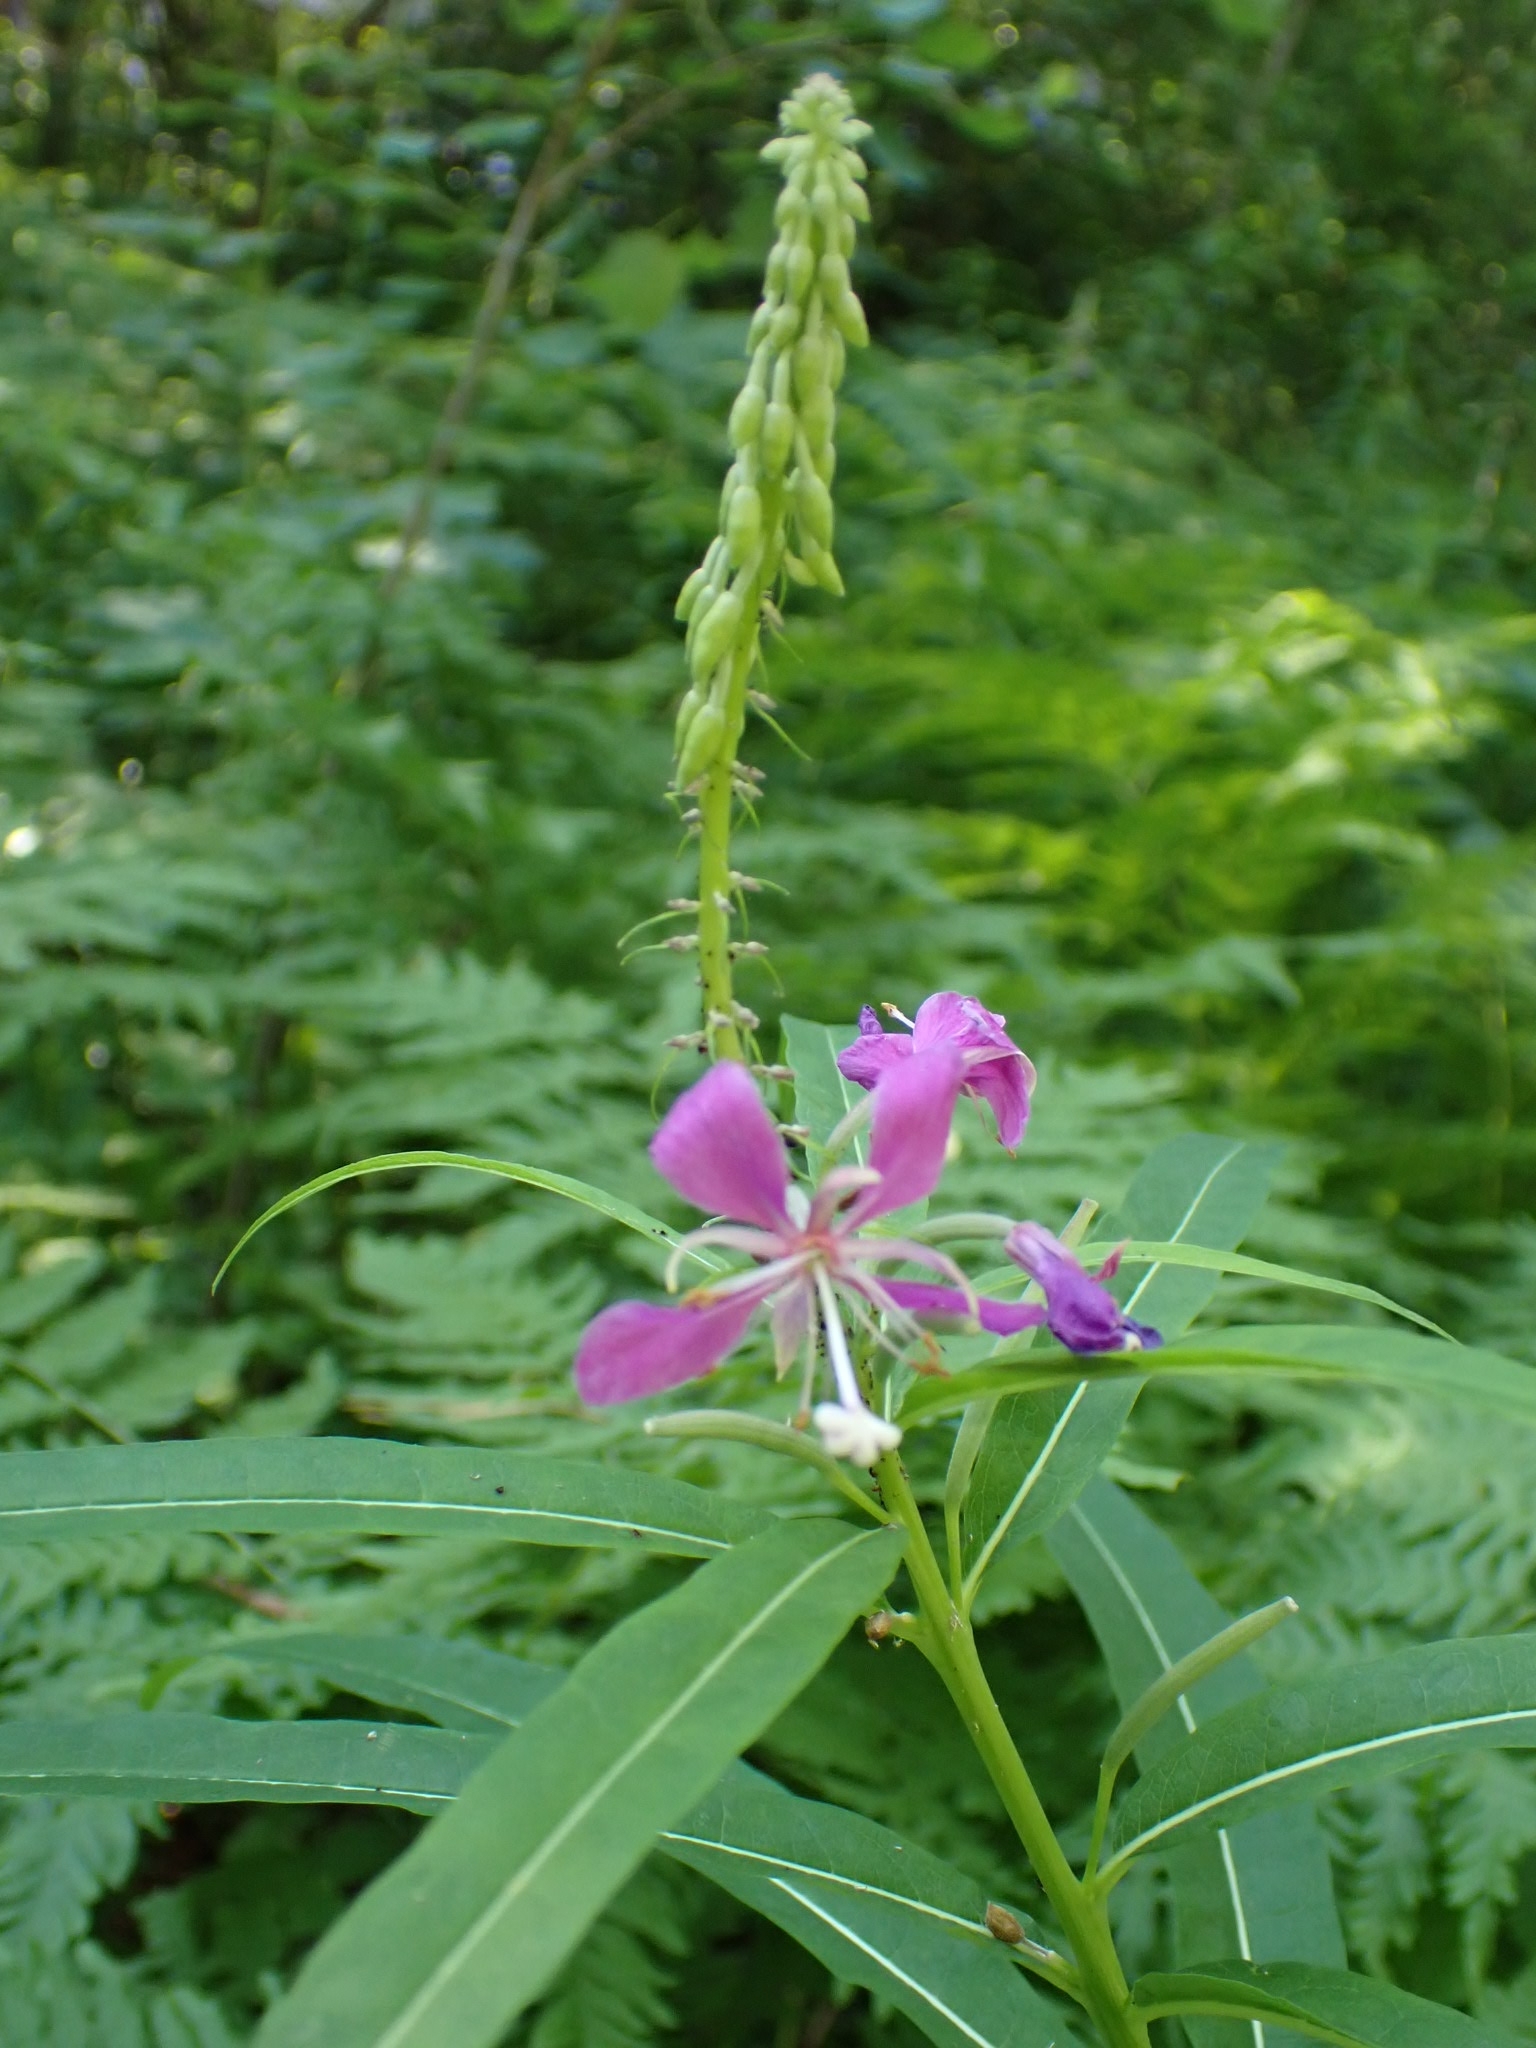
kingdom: Plantae
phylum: Tracheophyta
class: Magnoliopsida
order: Myrtales
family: Onagraceae
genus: Chamaenerion
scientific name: Chamaenerion angustifolium
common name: Fireweed
